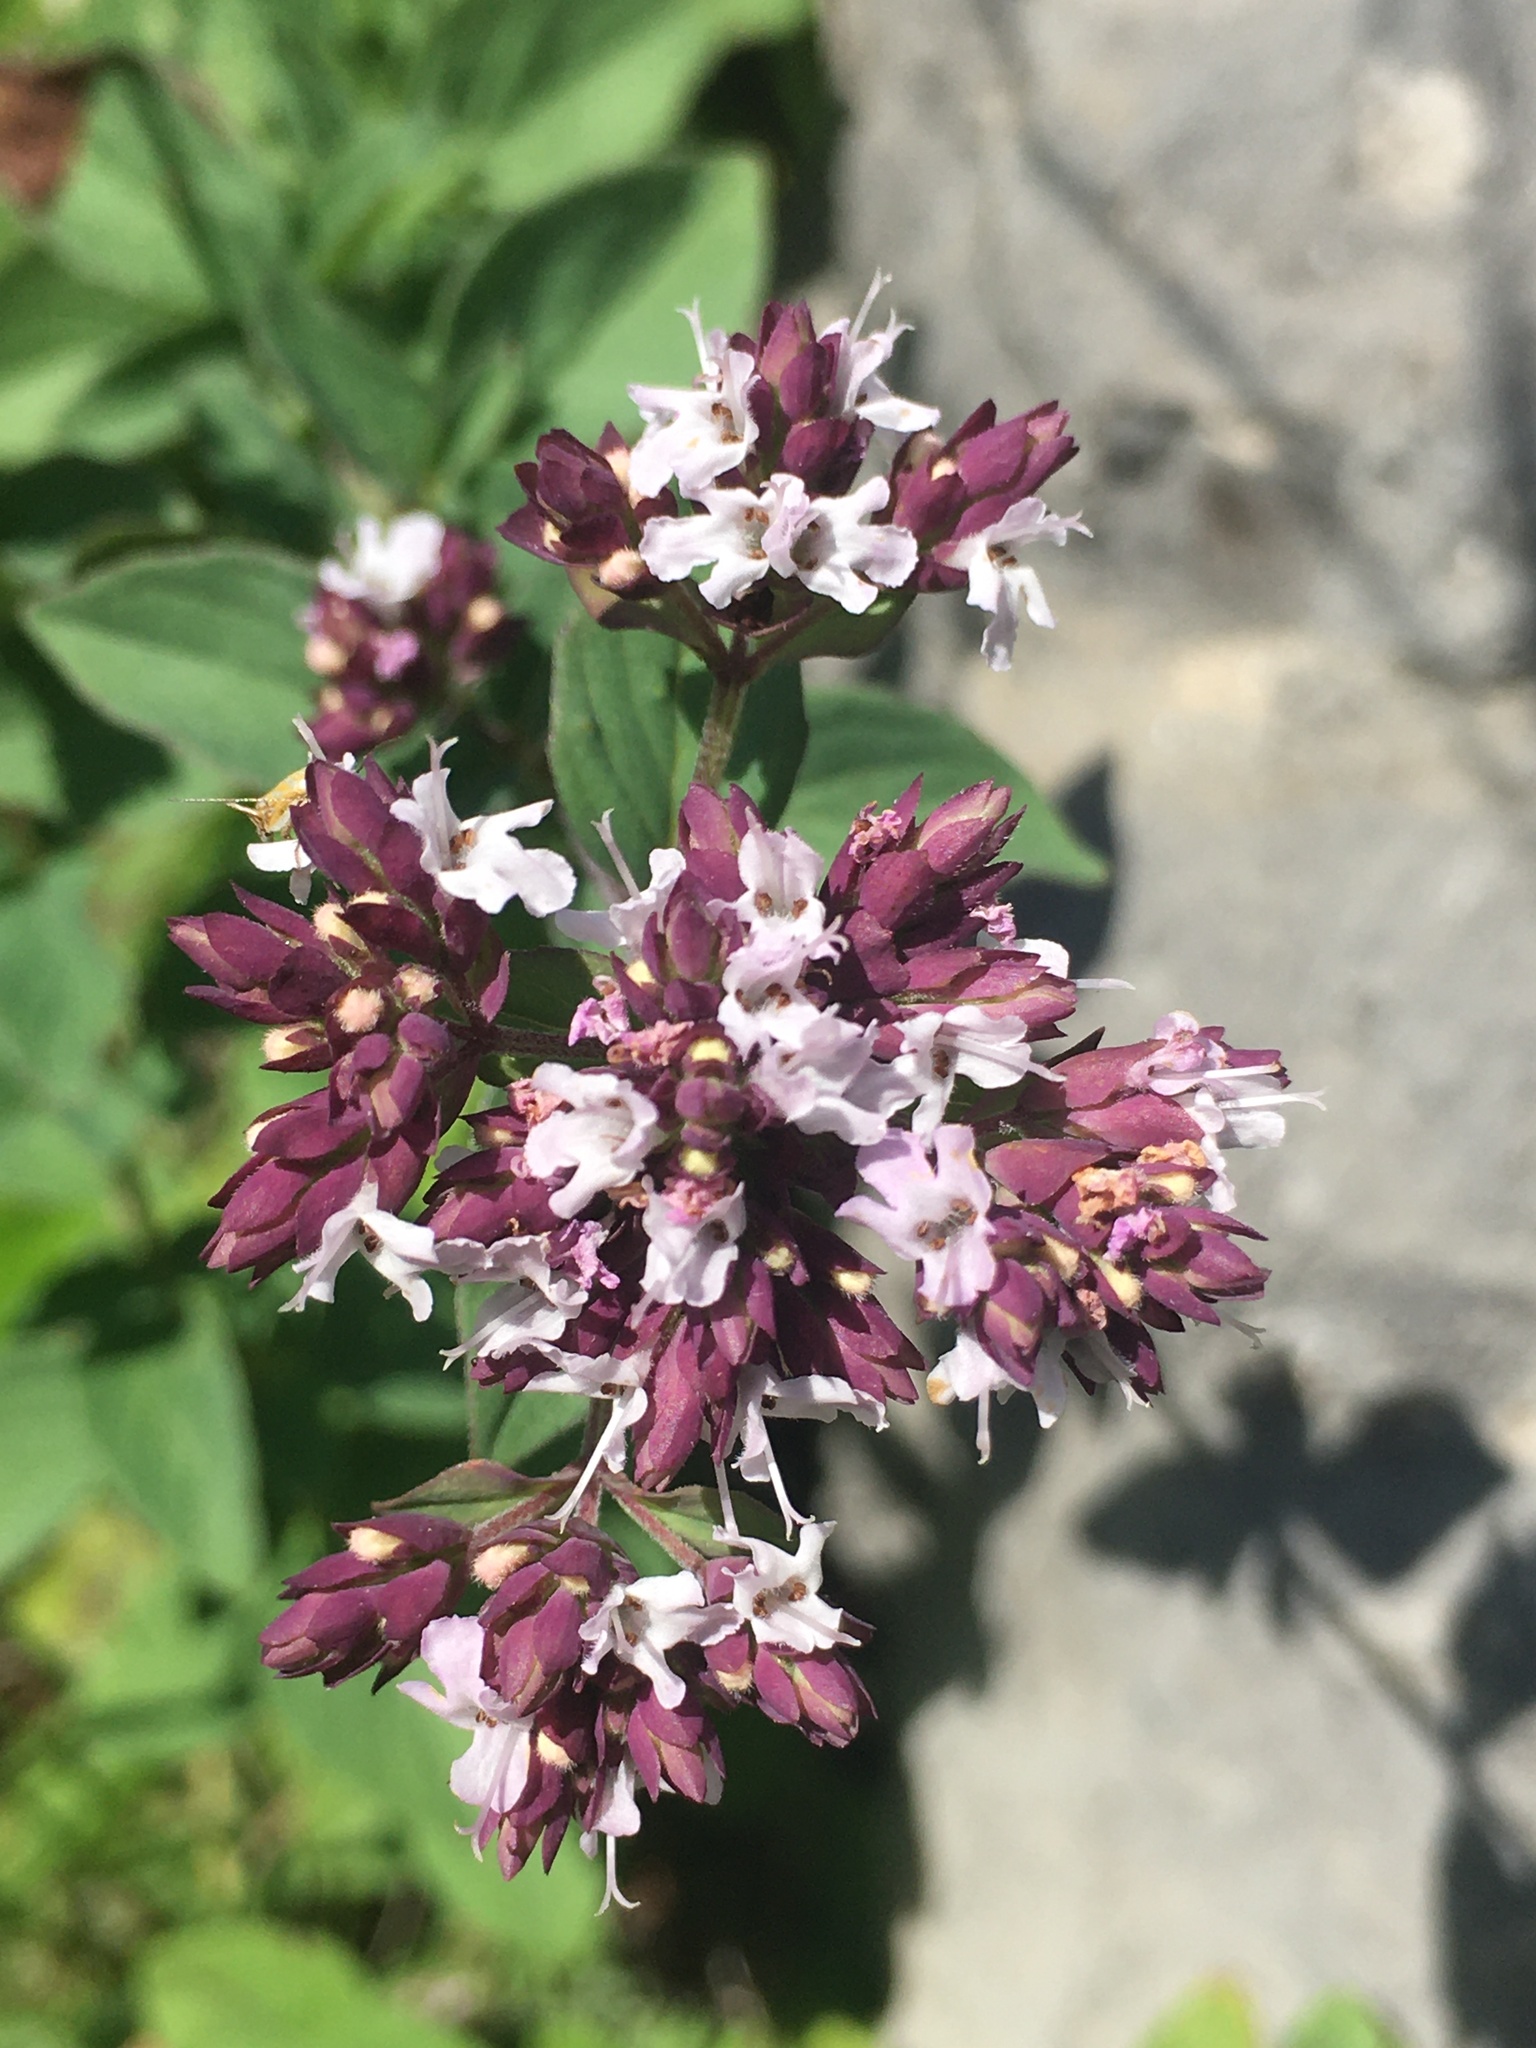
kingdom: Plantae
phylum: Tracheophyta
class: Magnoliopsida
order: Lamiales
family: Lamiaceae
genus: Origanum
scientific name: Origanum vulgare
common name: Wild marjoram
